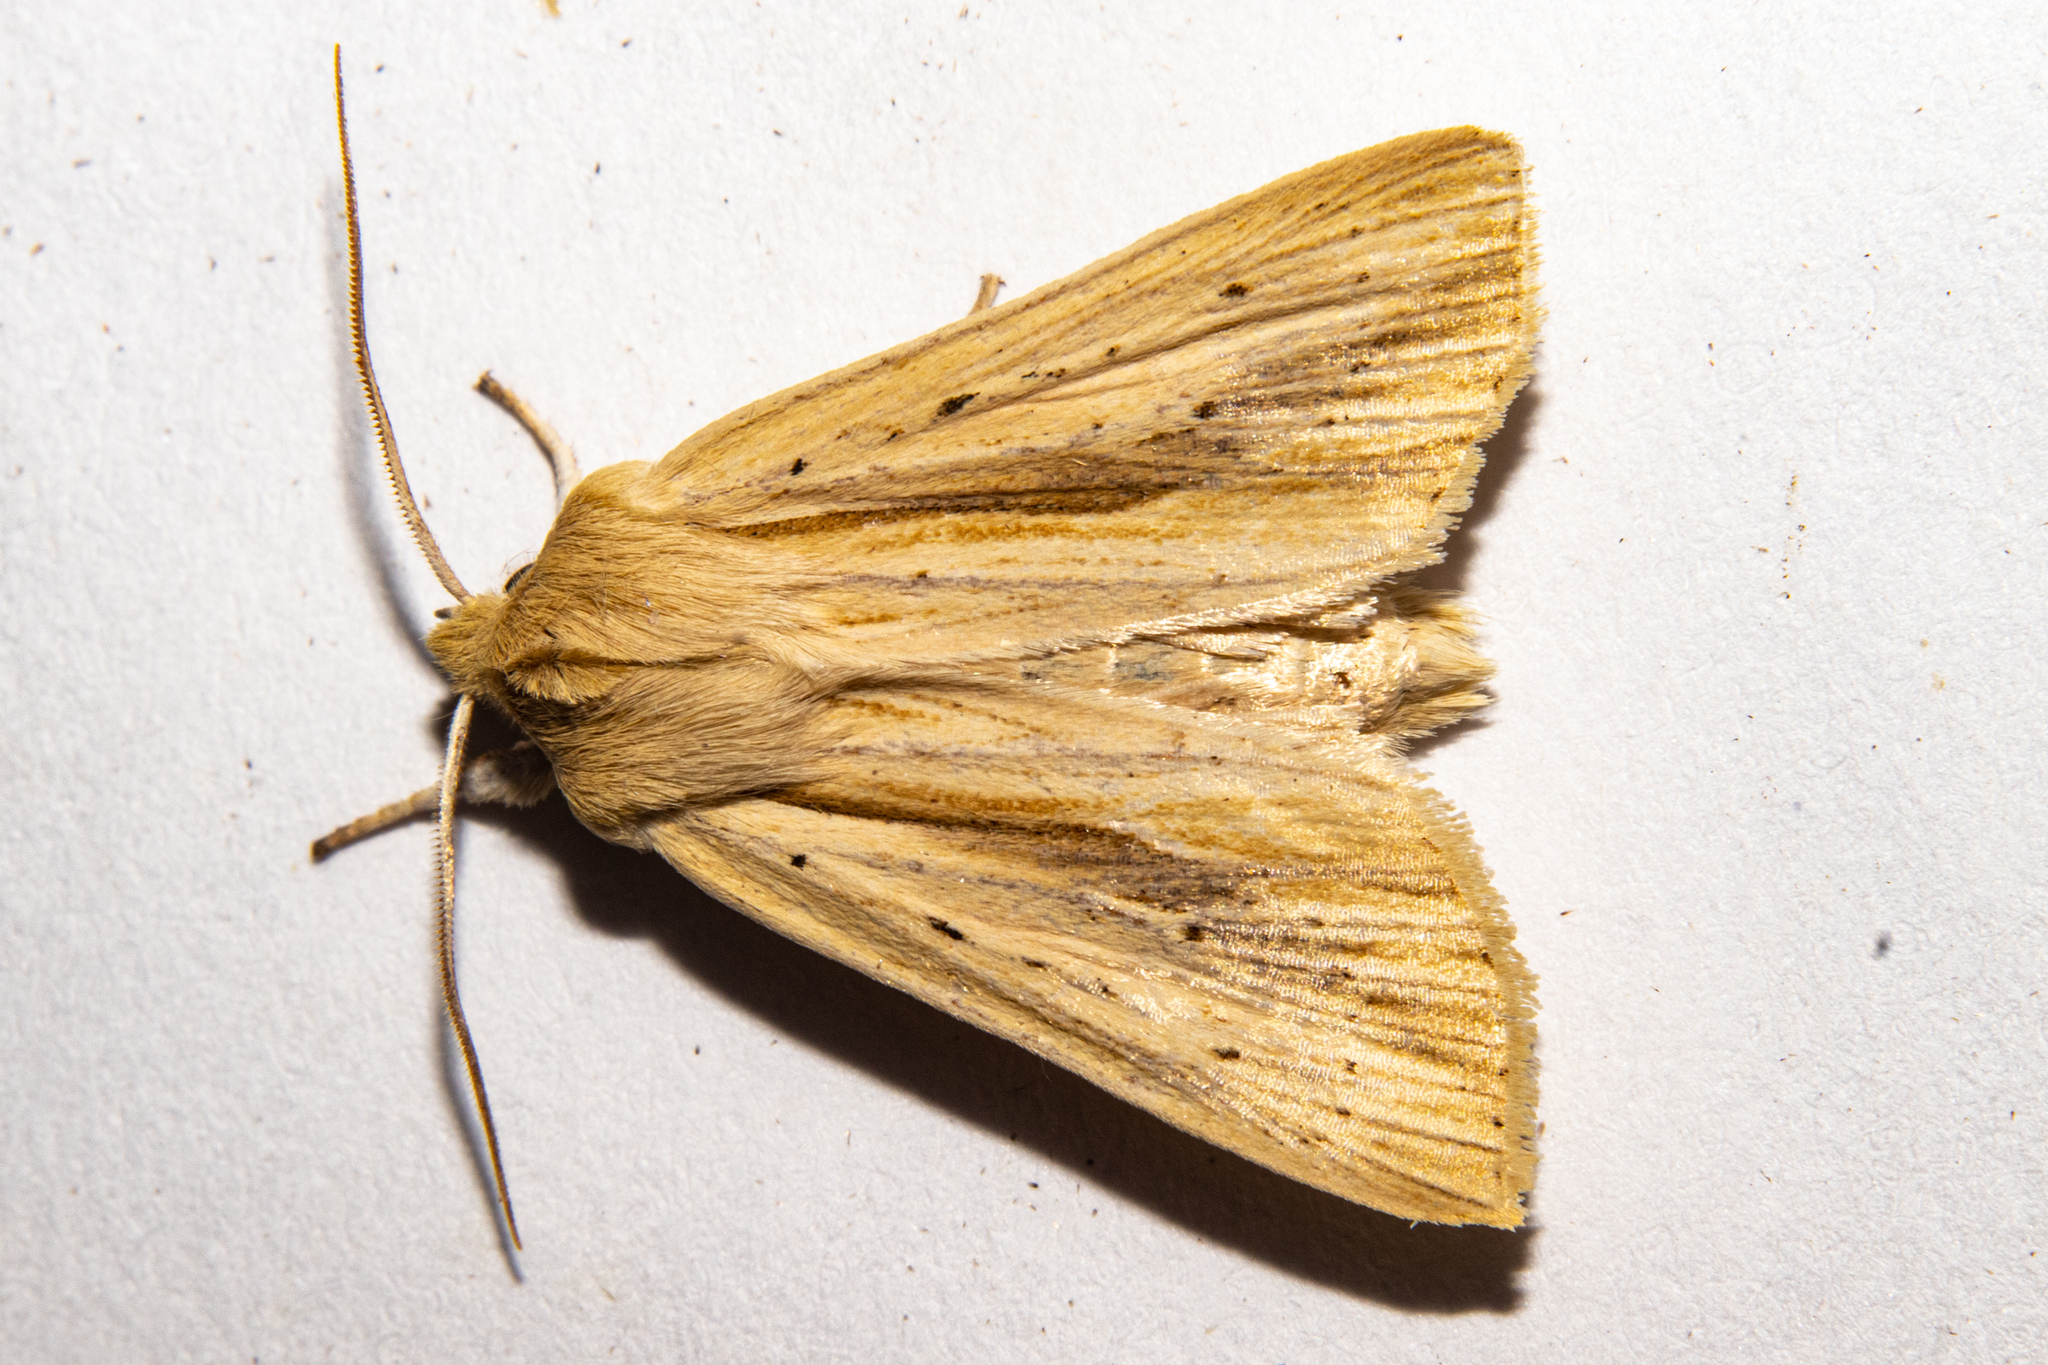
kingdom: Animalia
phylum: Arthropoda
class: Insecta
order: Lepidoptera
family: Noctuidae
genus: Ichneutica
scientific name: Ichneutica semivittata
